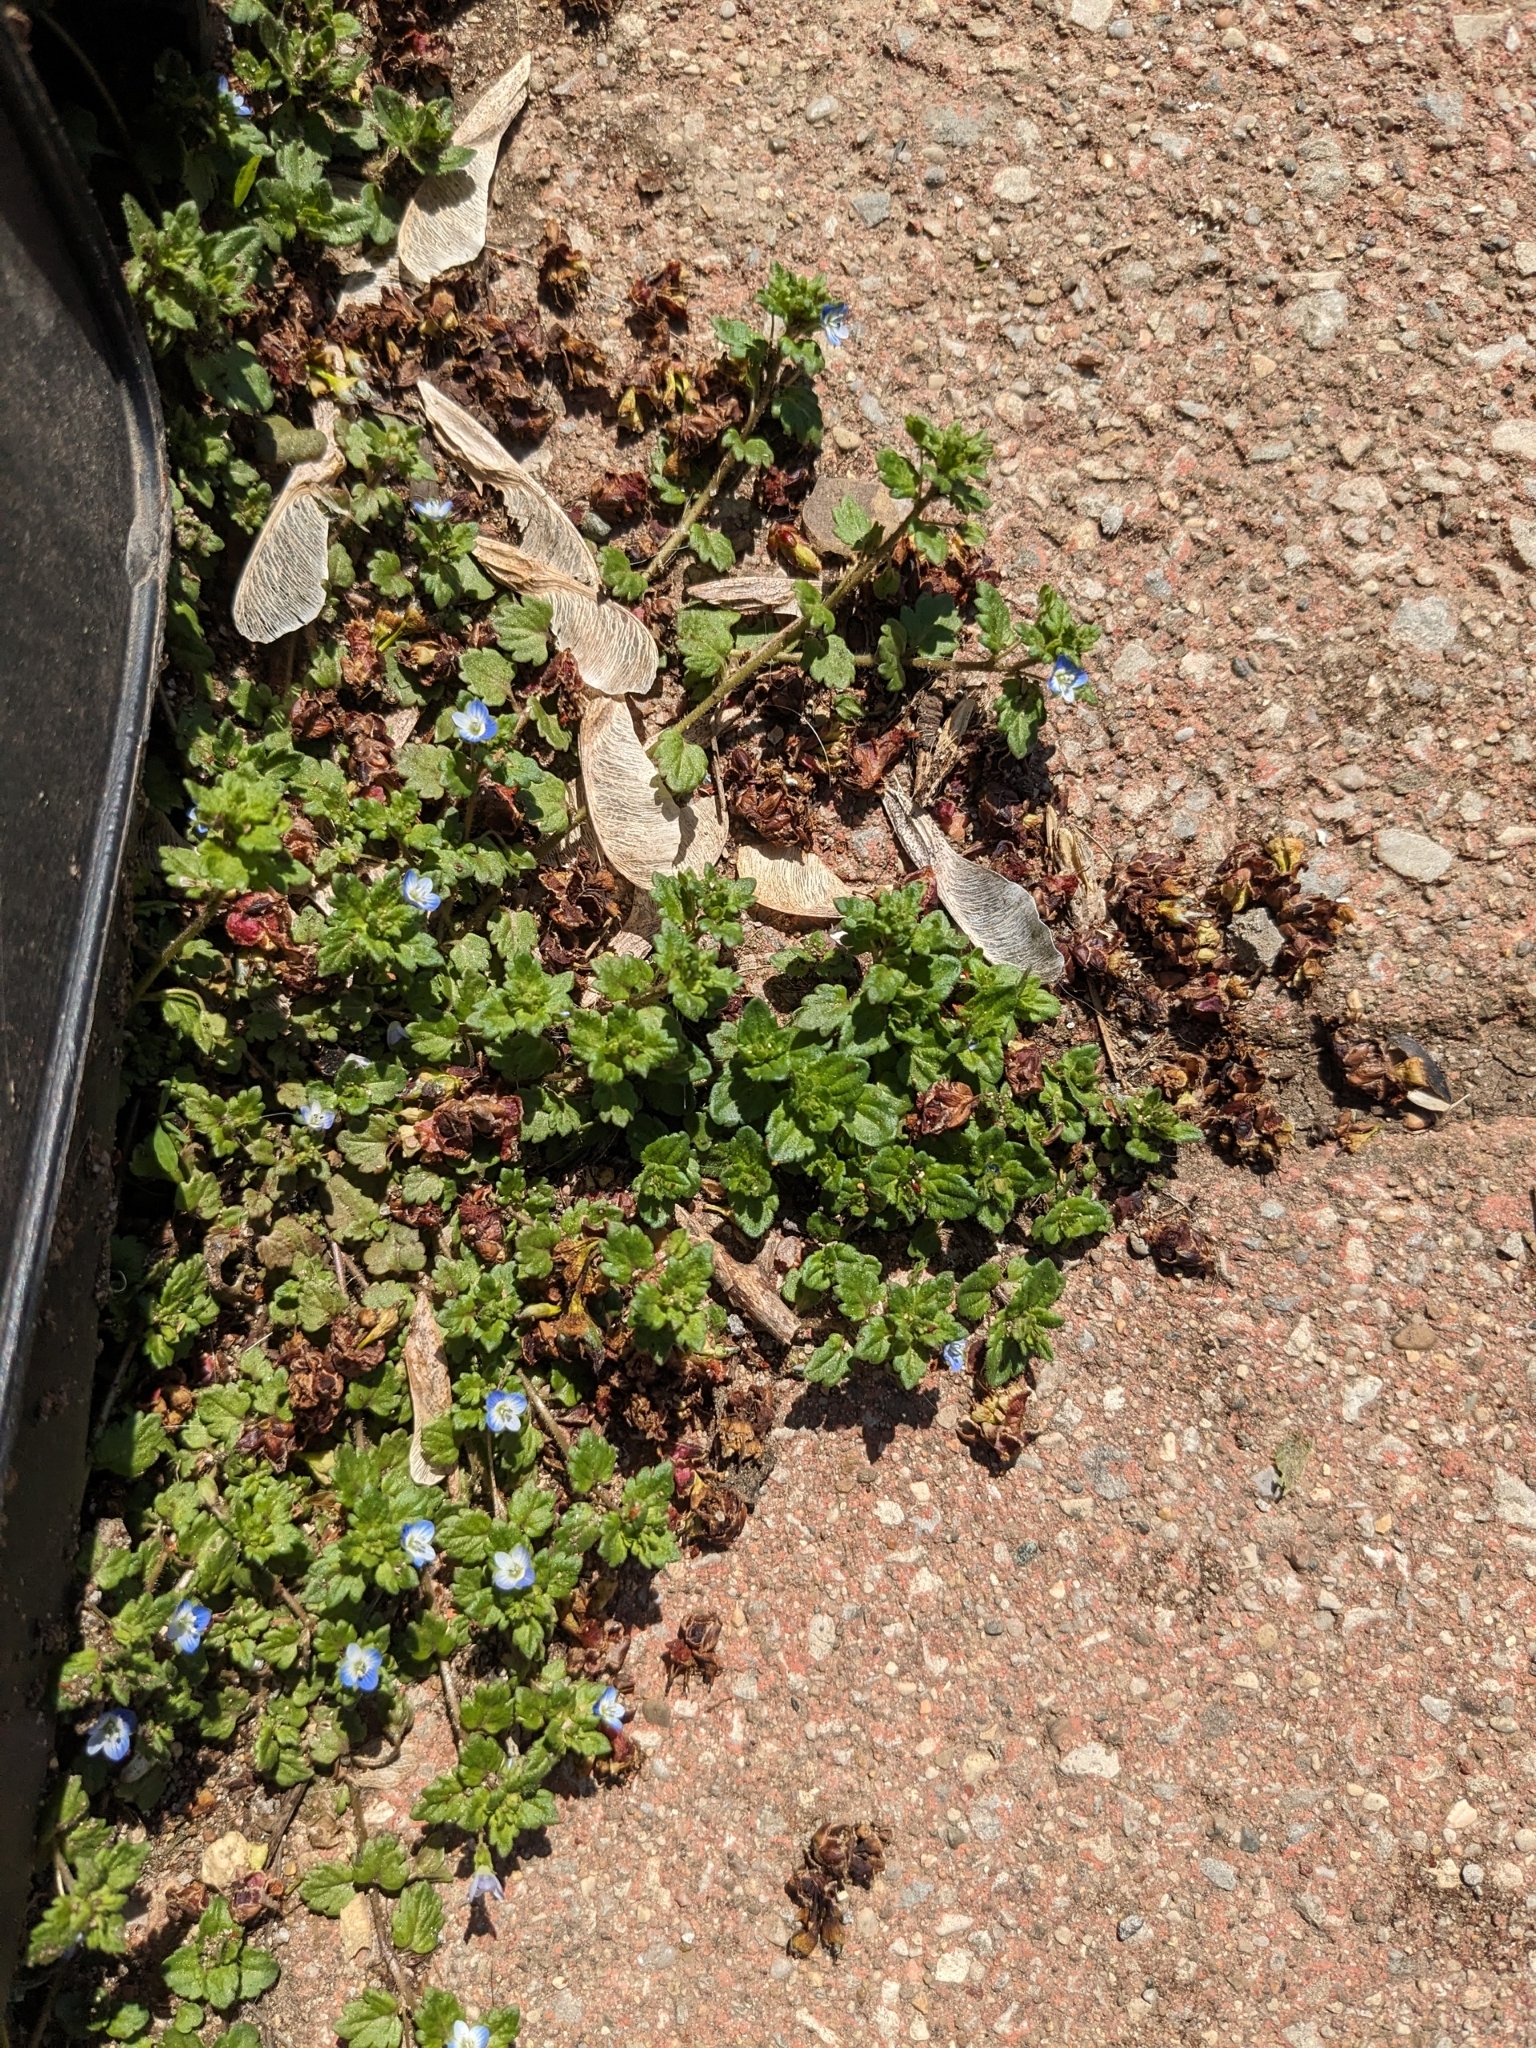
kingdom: Plantae
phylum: Tracheophyta
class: Magnoliopsida
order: Lamiales
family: Plantaginaceae
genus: Veronica
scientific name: Veronica polita
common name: Grey field-speedwell
